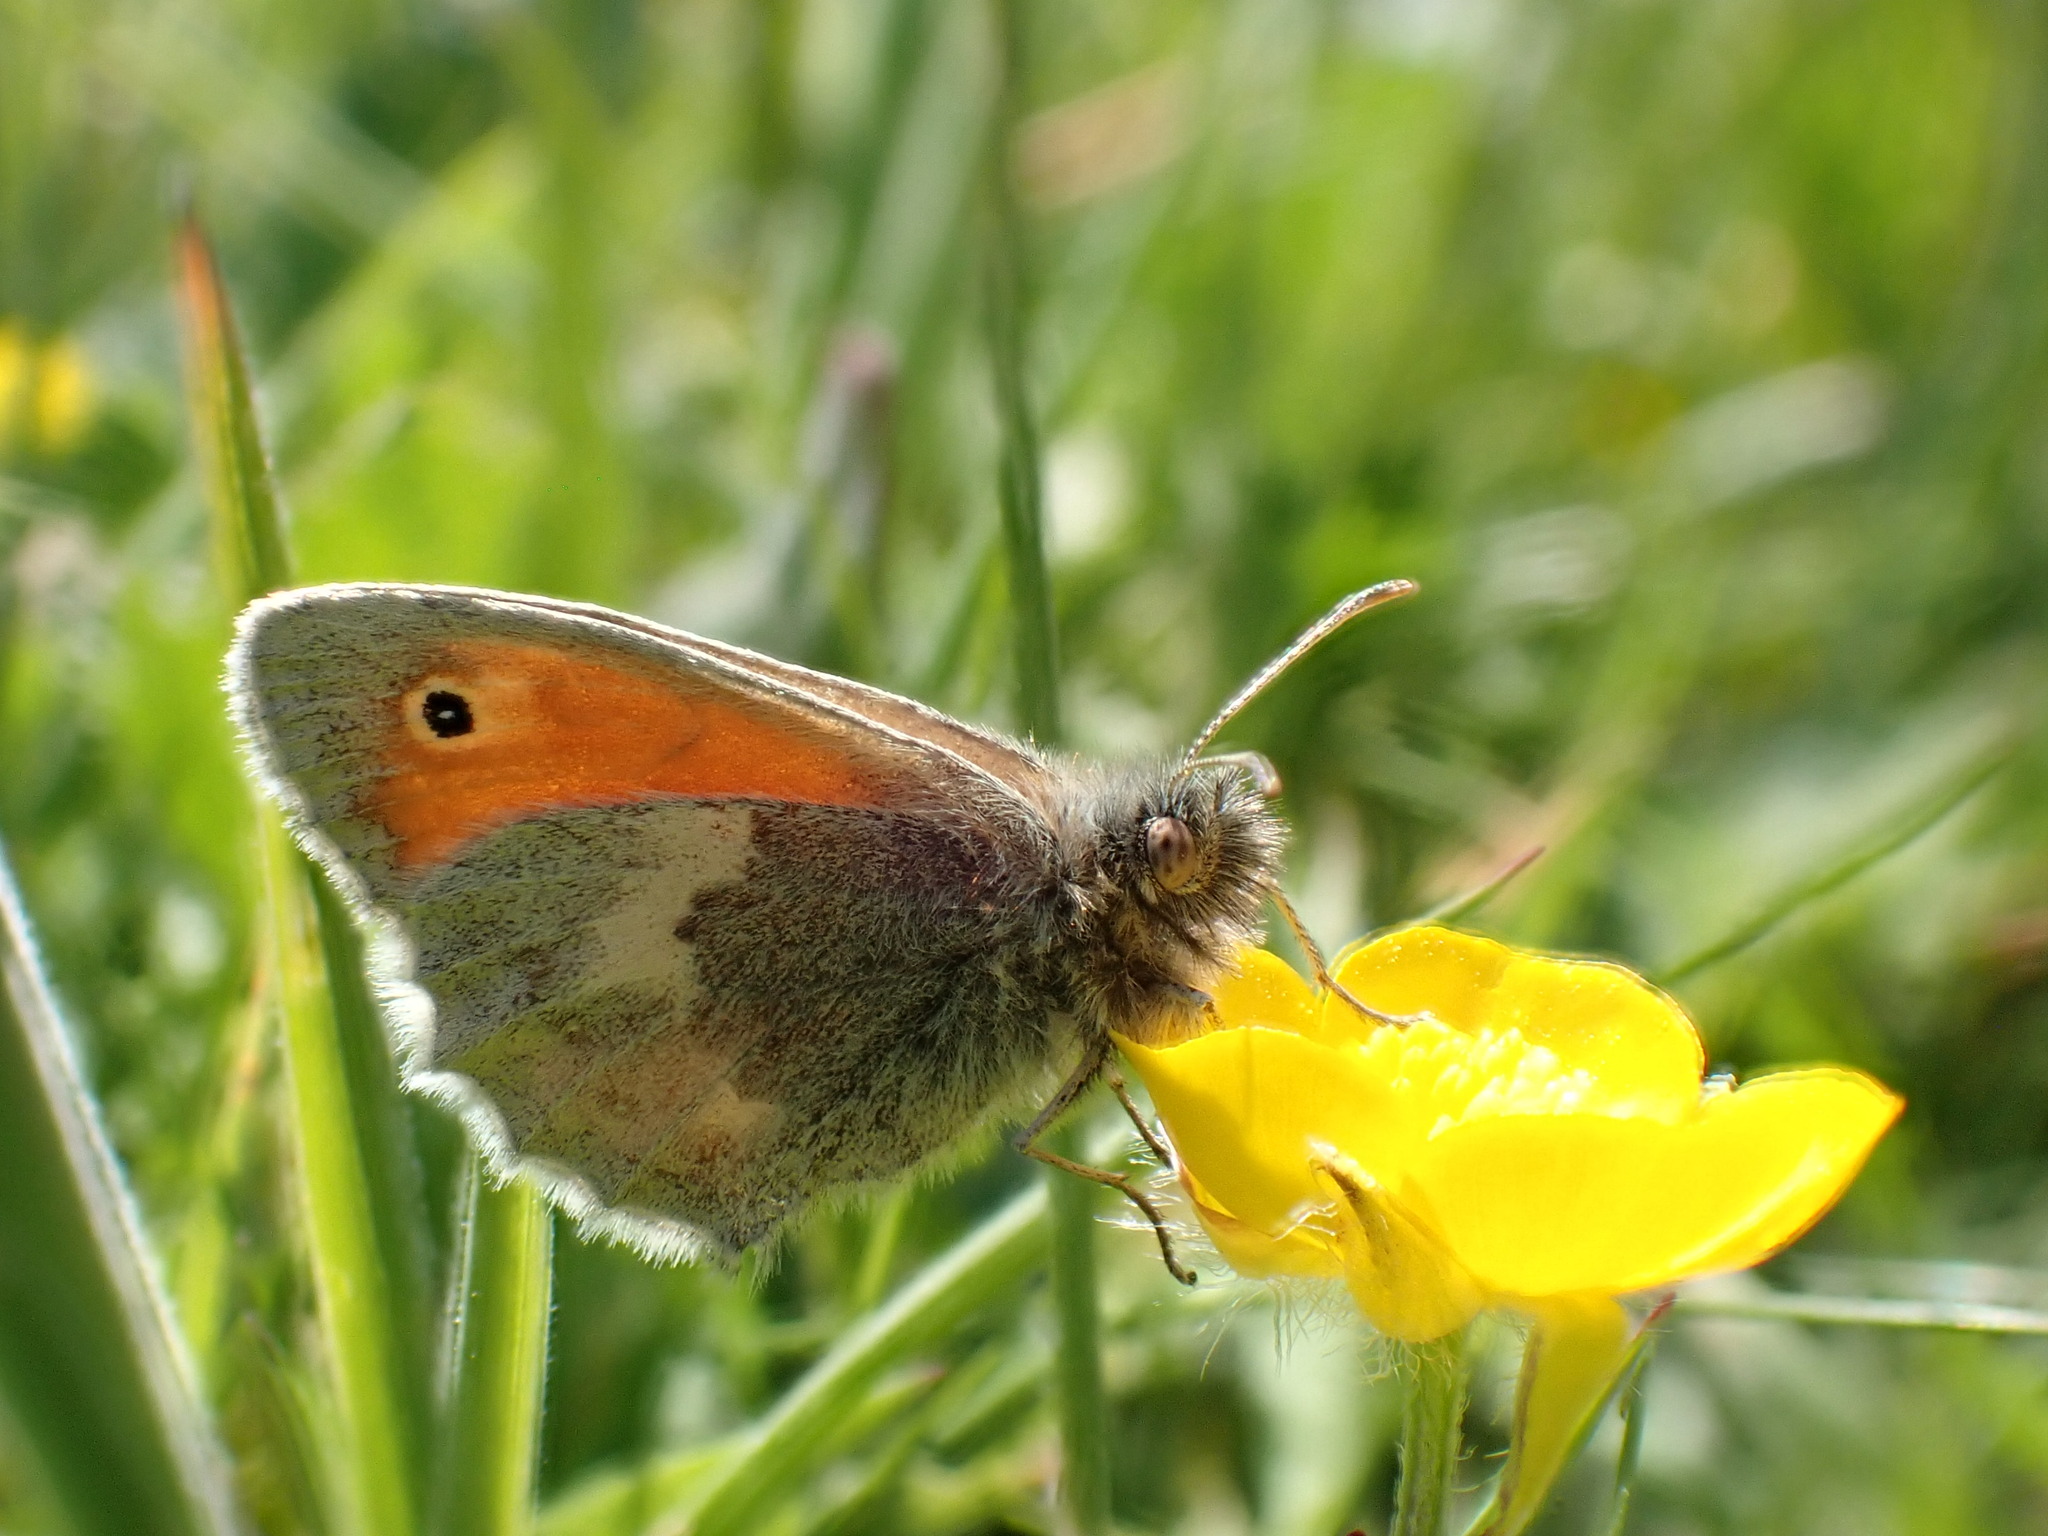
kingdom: Animalia
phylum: Arthropoda
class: Insecta
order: Lepidoptera
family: Nymphalidae
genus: Coenonympha
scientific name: Coenonympha pamphilus
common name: Small heath
